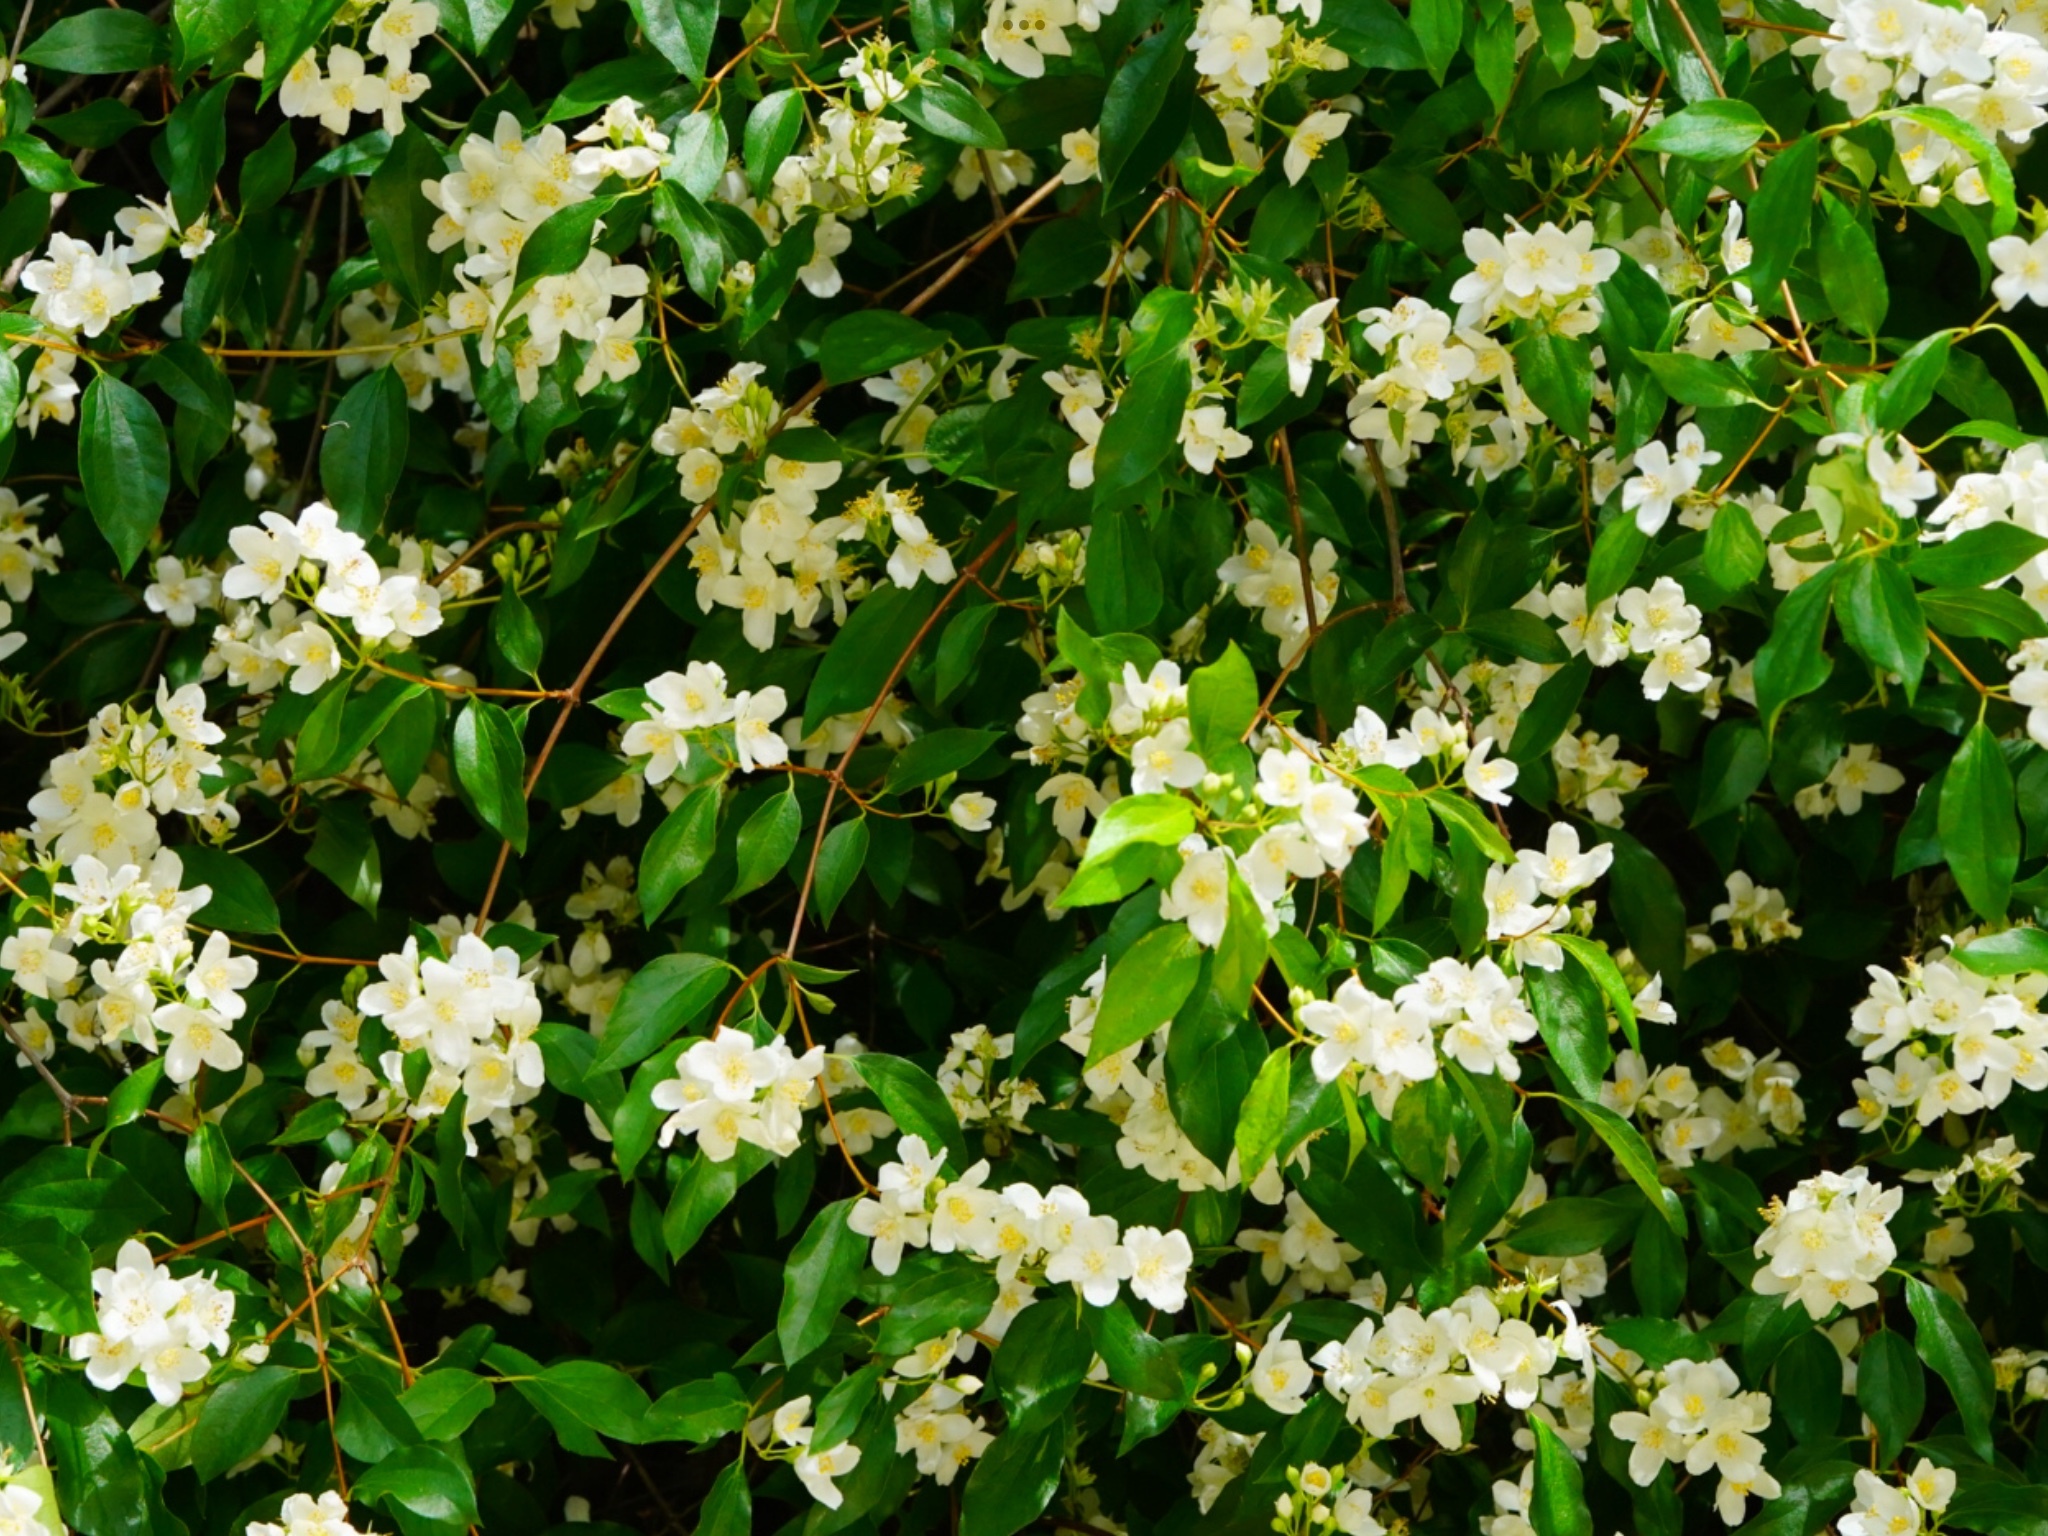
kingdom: Plantae
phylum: Tracheophyta
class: Magnoliopsida
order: Cornales
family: Hydrangeaceae
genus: Philadelphus
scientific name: Philadelphus lewisii
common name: Lewis's mock orange
